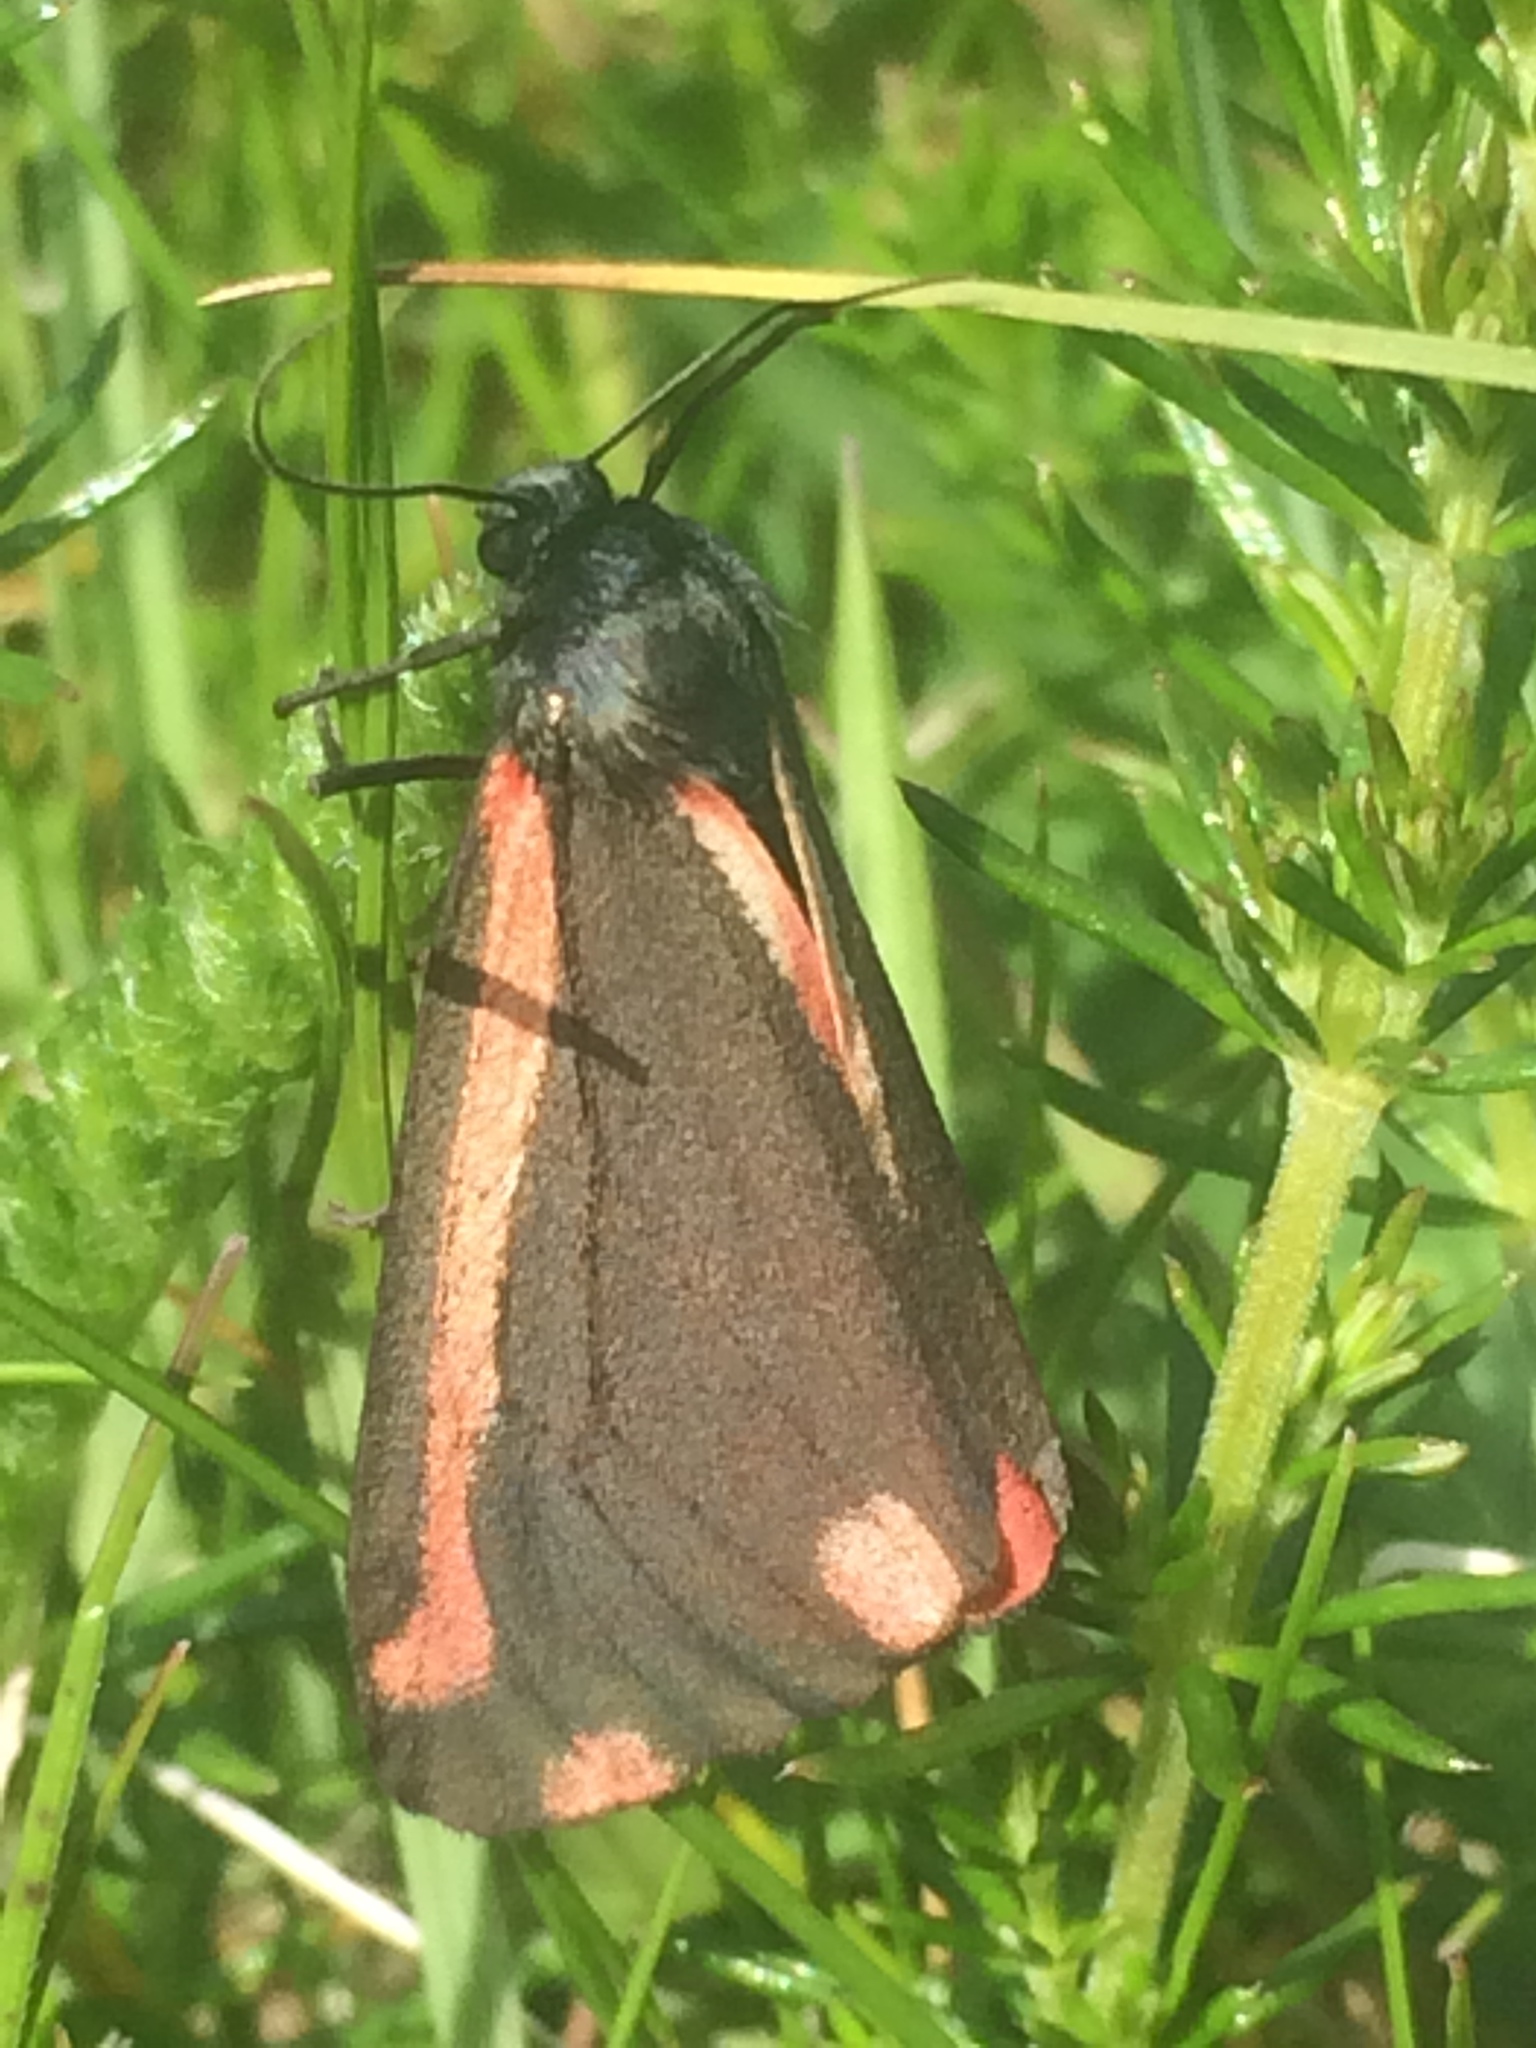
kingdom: Animalia
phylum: Arthropoda
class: Insecta
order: Lepidoptera
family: Erebidae
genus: Tyria
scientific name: Tyria jacobaeae
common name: Cinnabar
